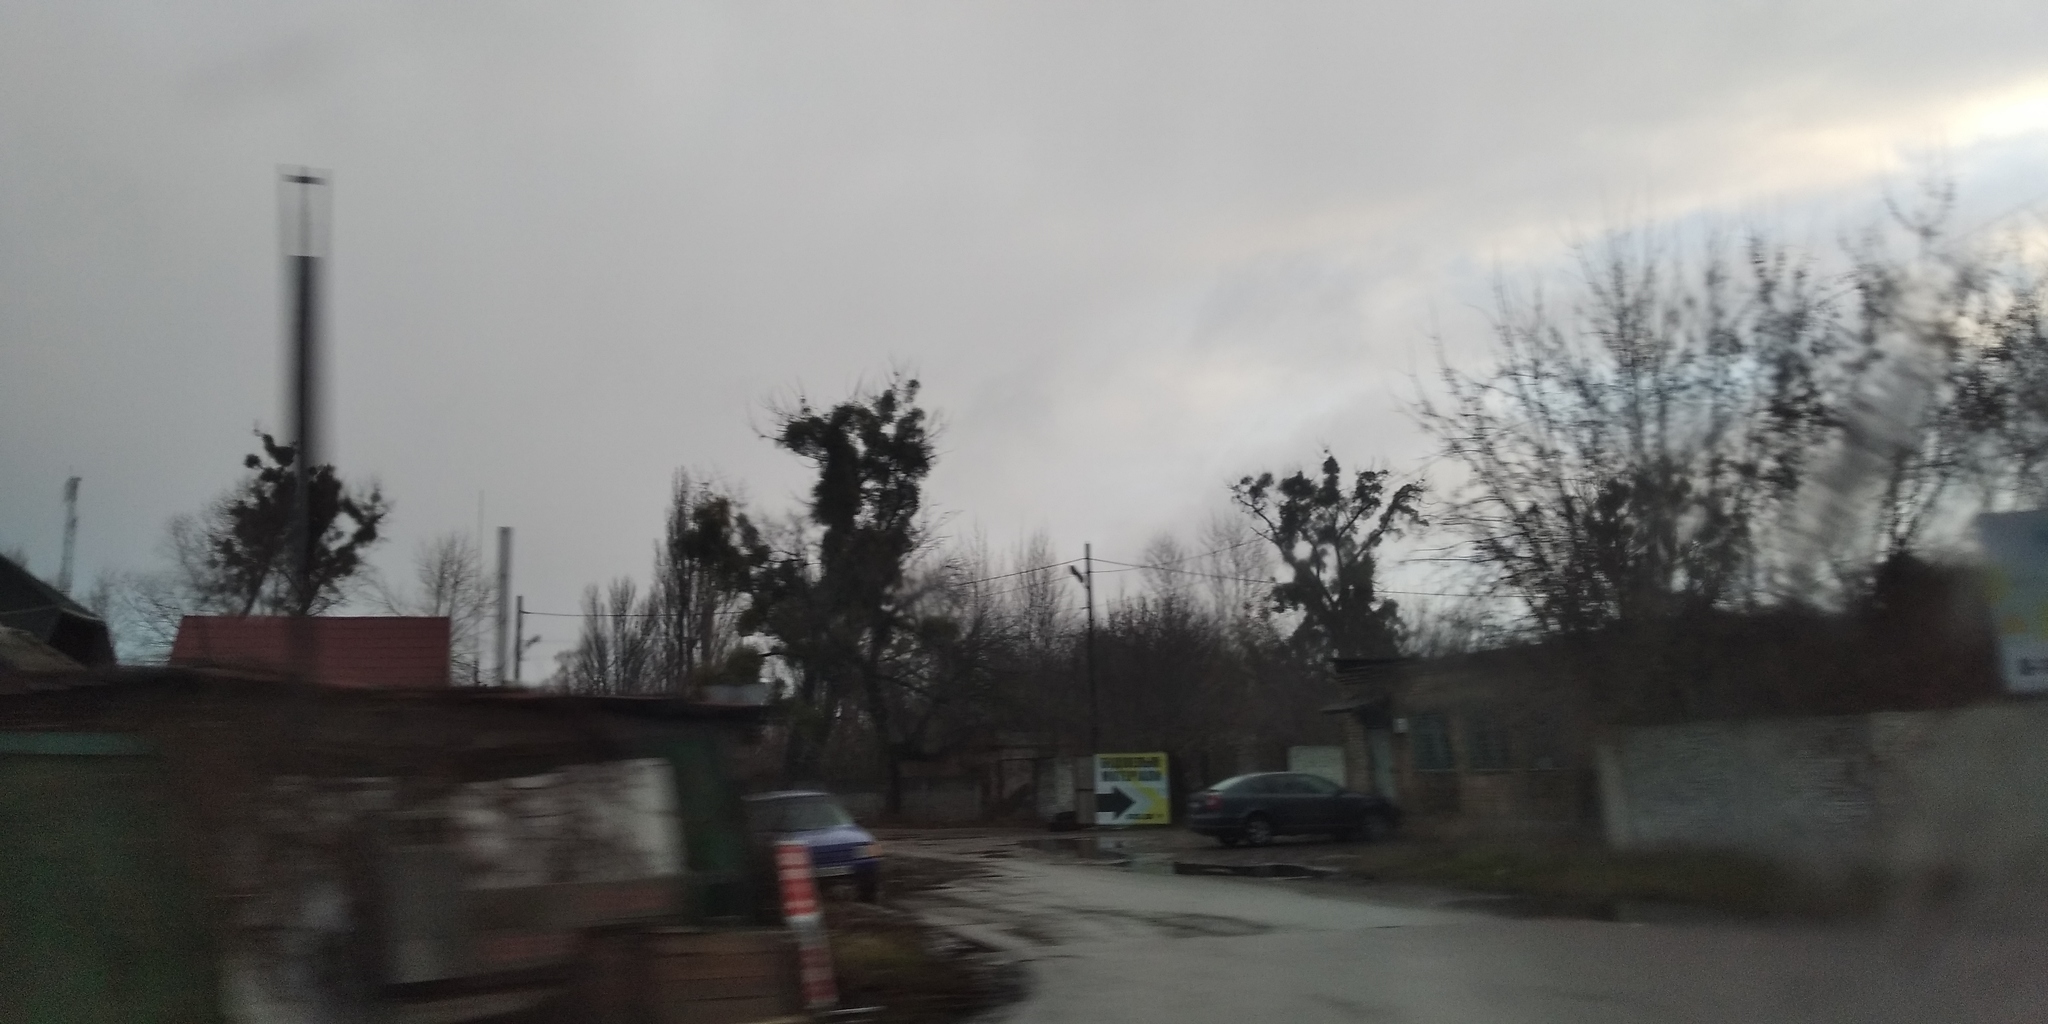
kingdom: Plantae
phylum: Tracheophyta
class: Magnoliopsida
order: Santalales
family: Viscaceae
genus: Viscum
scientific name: Viscum album
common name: Mistletoe
